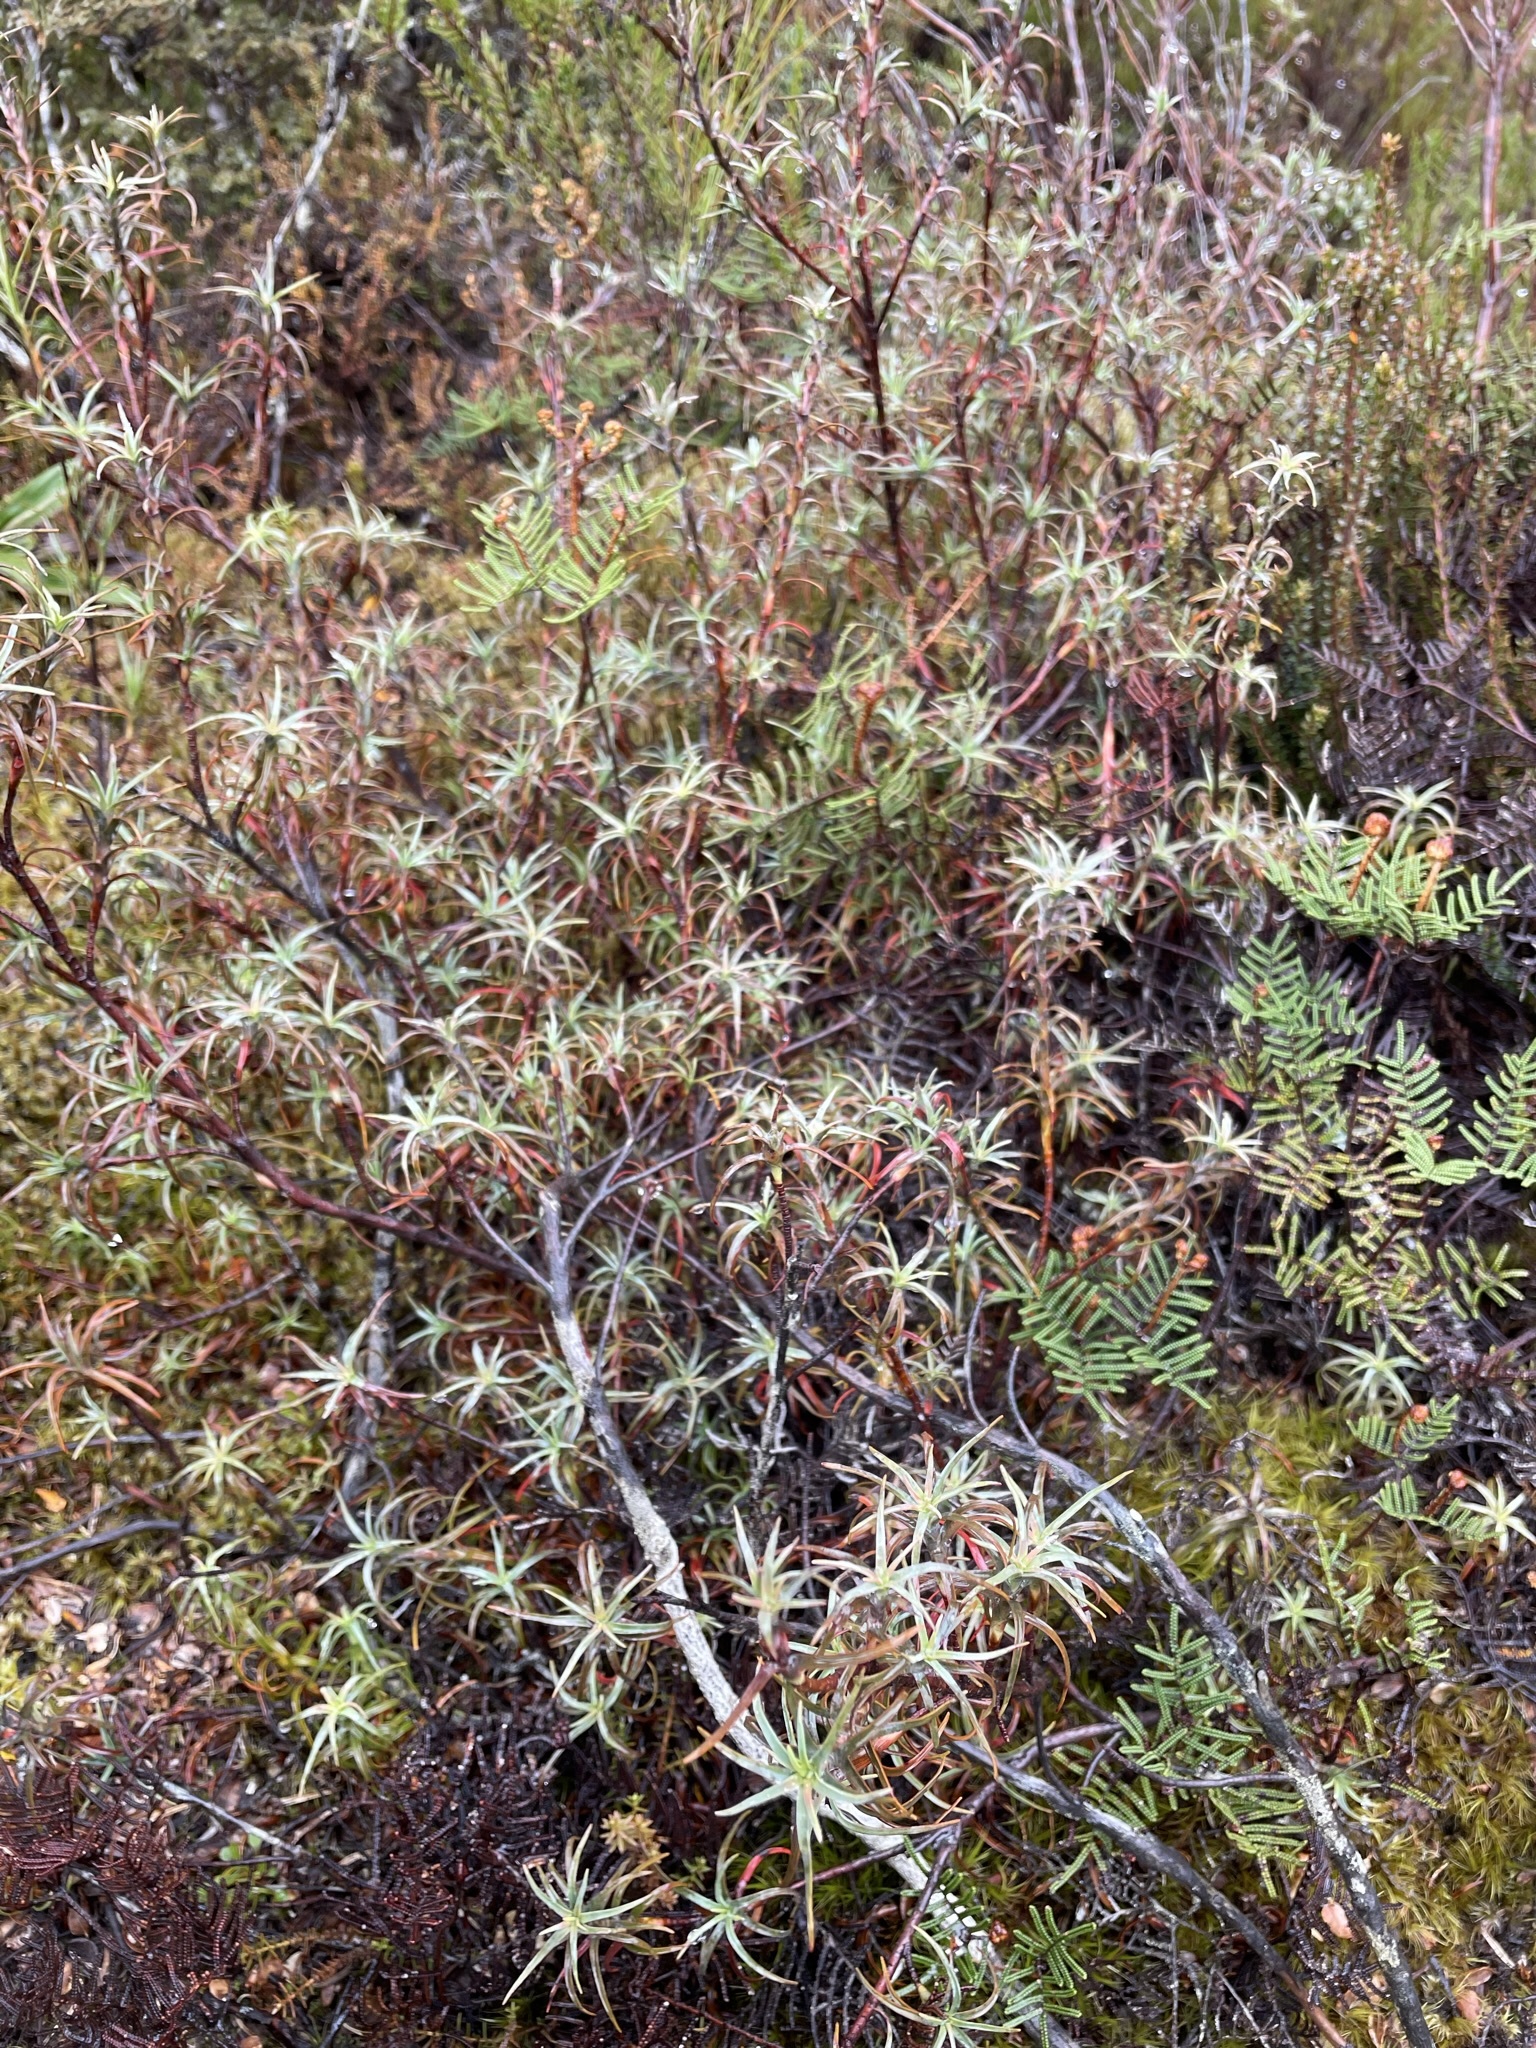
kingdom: Plantae
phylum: Tracheophyta
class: Magnoliopsida
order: Ericales
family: Ericaceae
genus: Dracophyllum
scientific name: Dracophyllum recurvum
